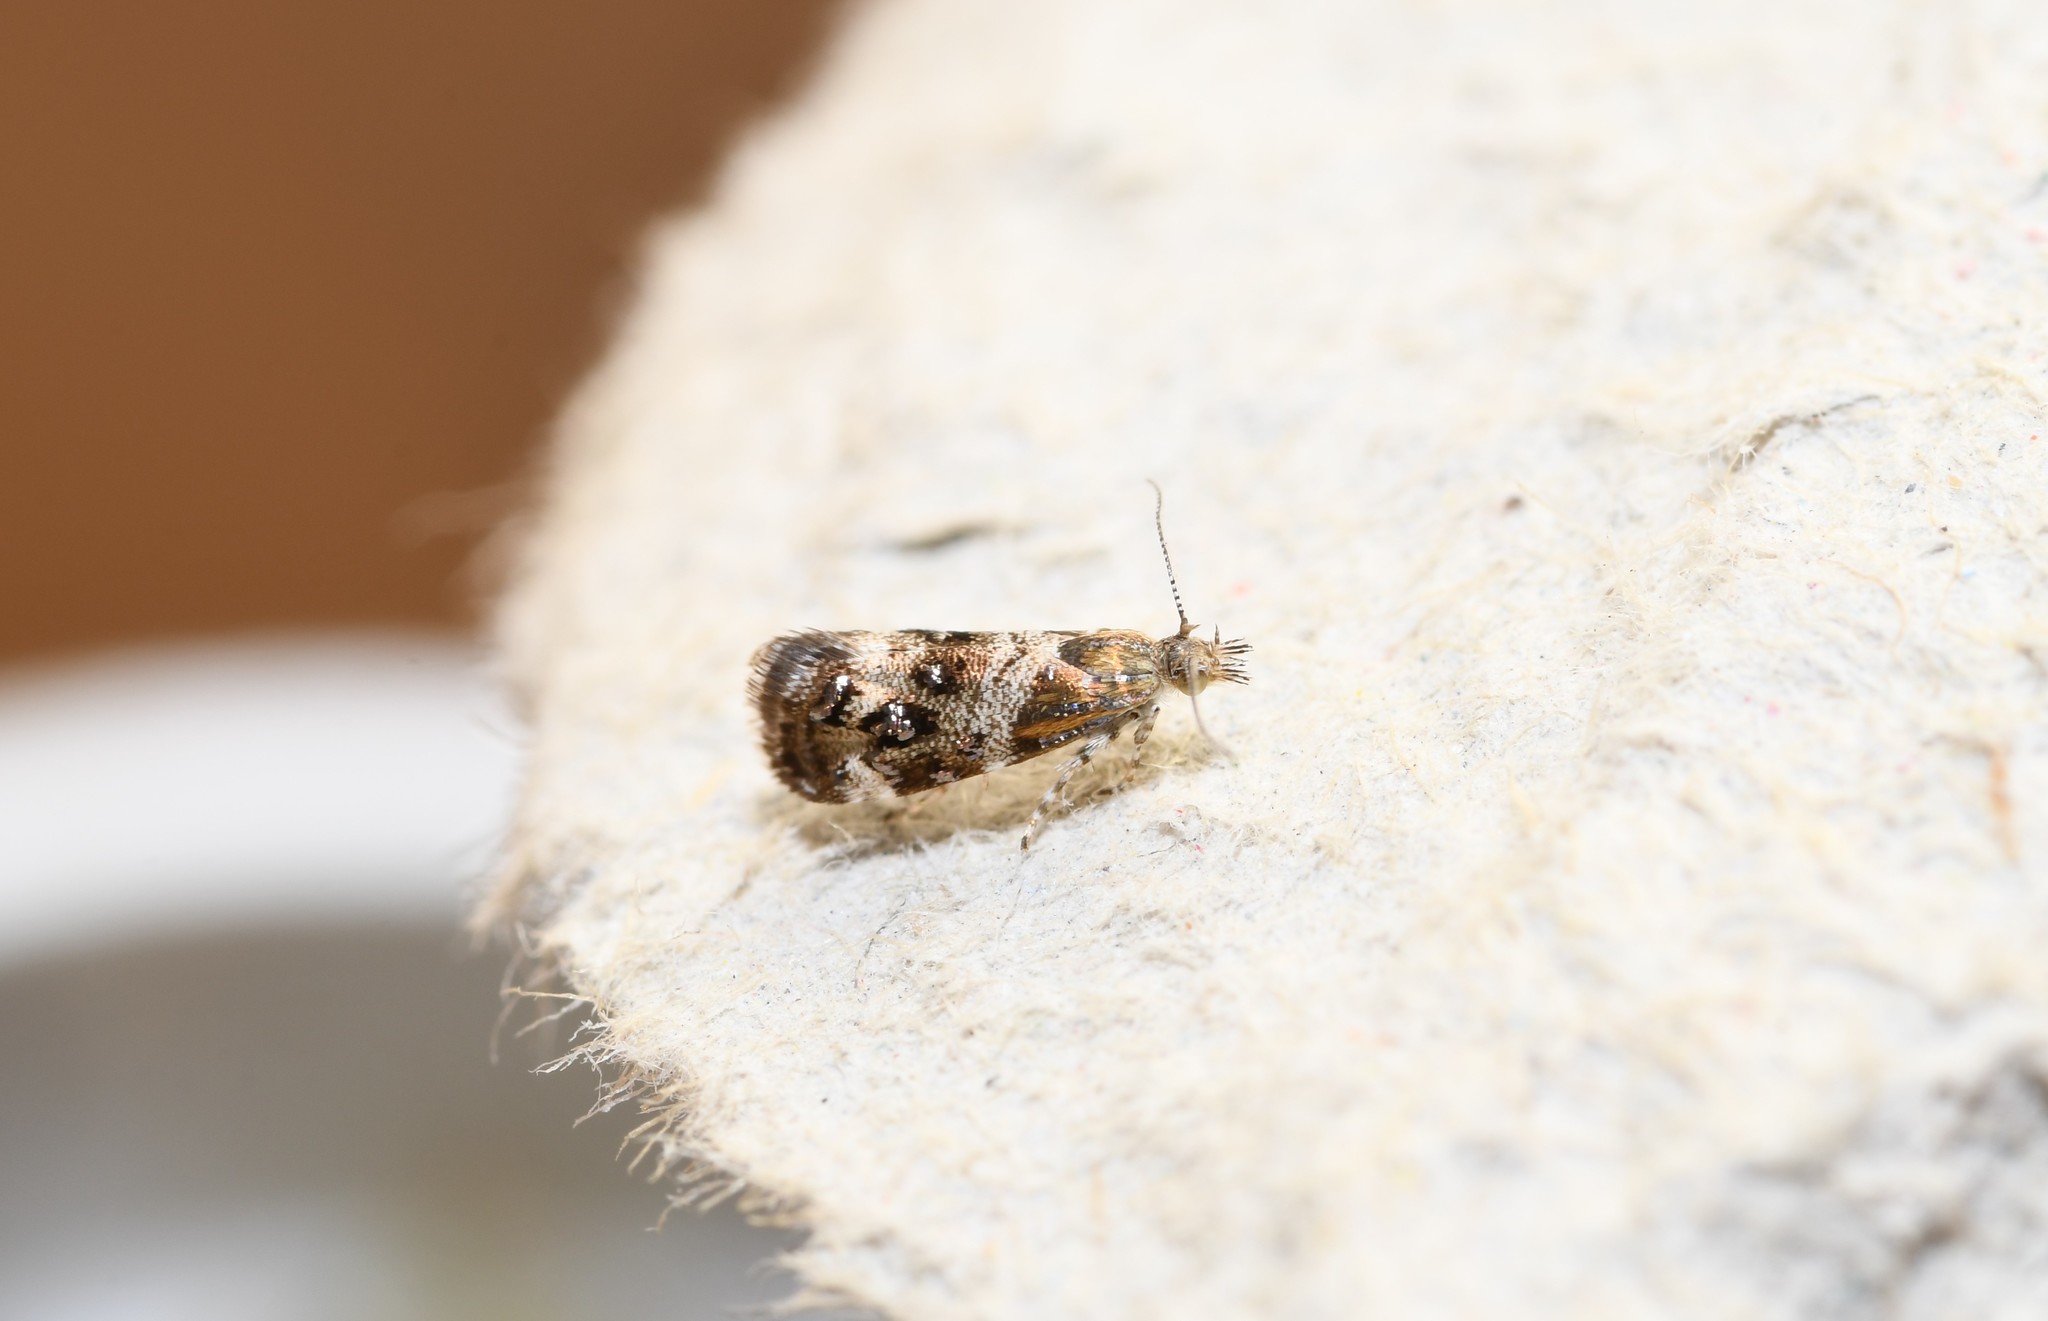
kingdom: Animalia
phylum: Arthropoda
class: Insecta
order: Lepidoptera
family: Choreutidae
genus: Tebenna
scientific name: Tebenna micalis
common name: Vagrant twitcher
